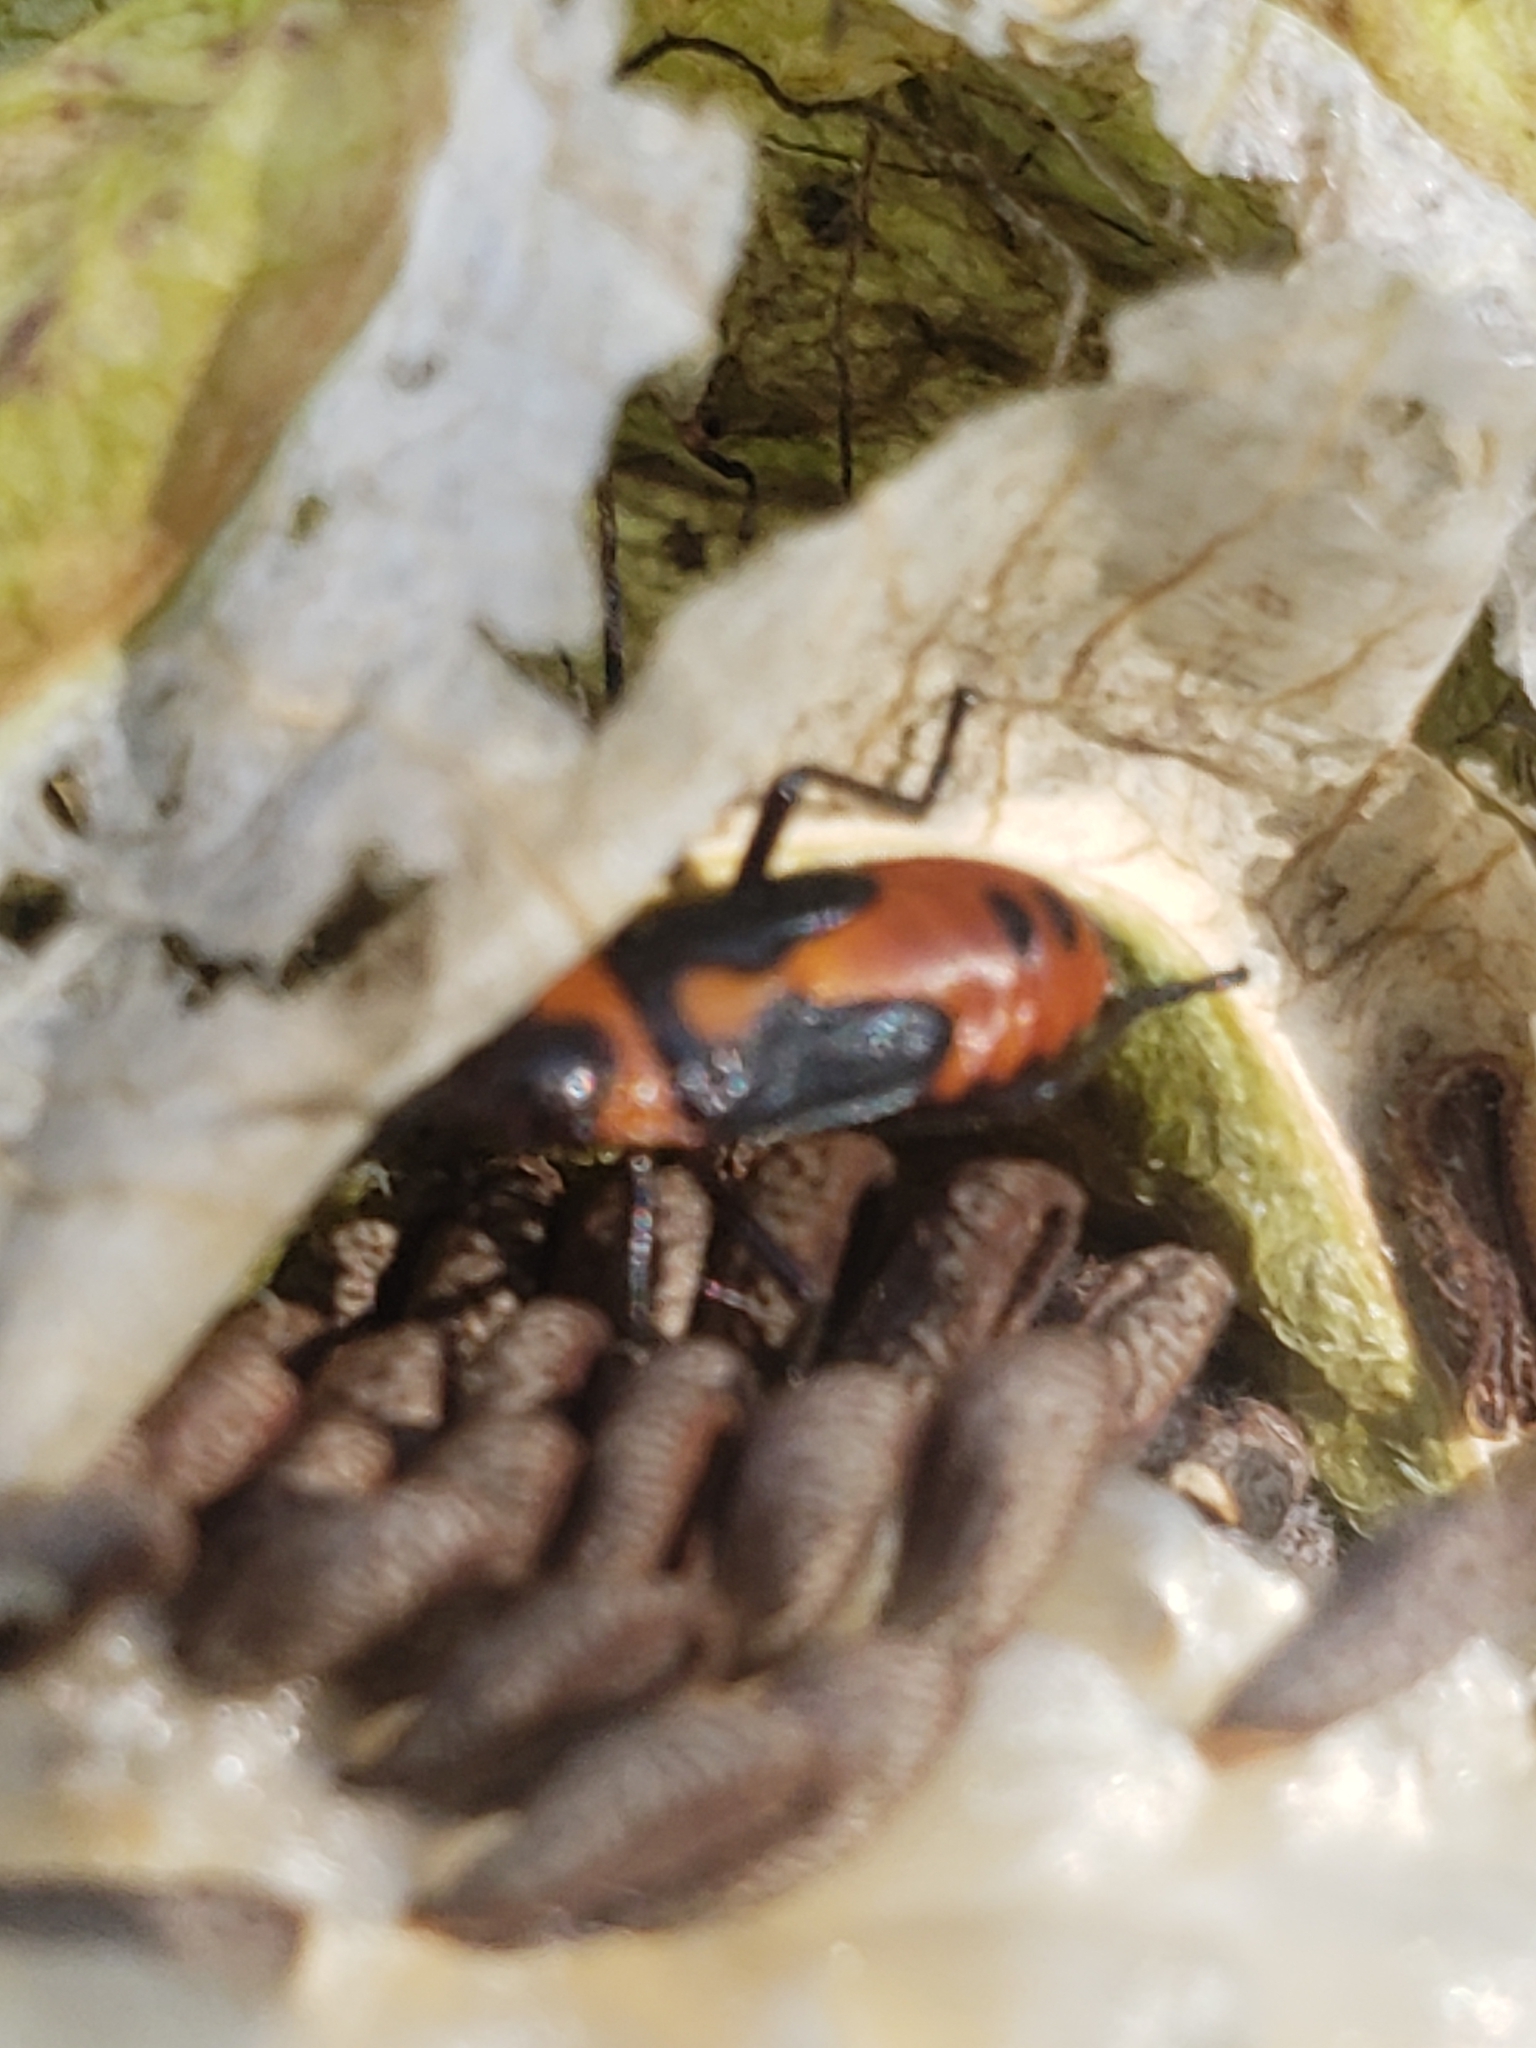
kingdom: Animalia
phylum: Arthropoda
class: Insecta
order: Hemiptera
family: Lygaeidae
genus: Oncopeltus
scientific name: Oncopeltus fasciatus
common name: Large milkweed bug
